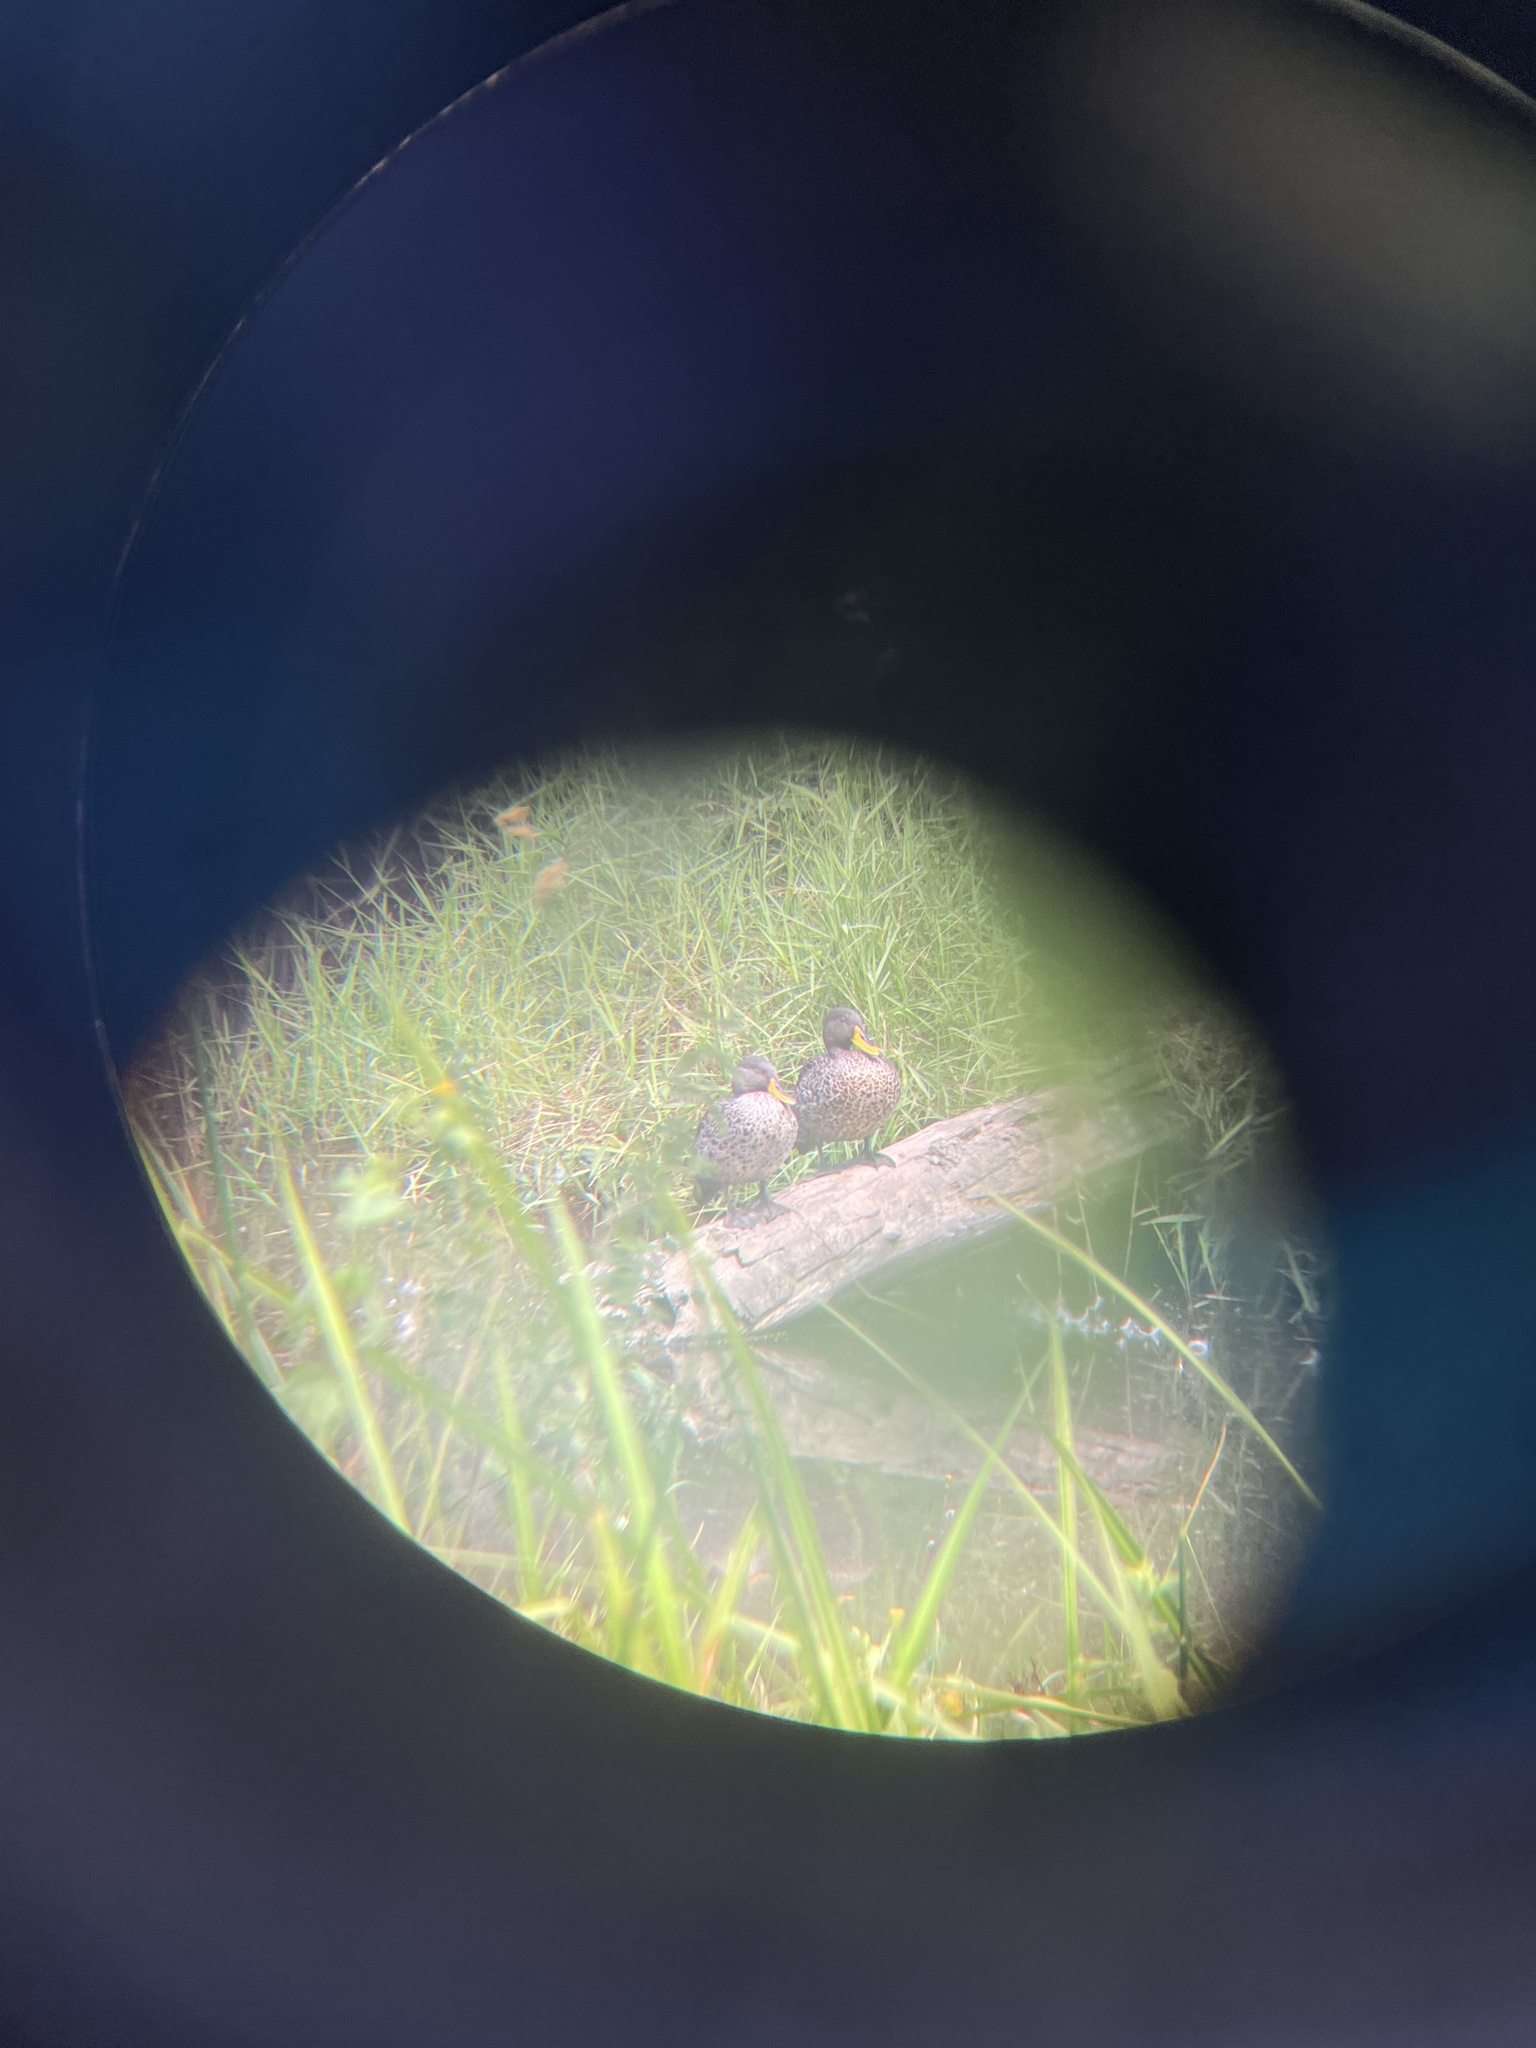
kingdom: Animalia
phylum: Chordata
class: Aves
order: Anseriformes
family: Anatidae
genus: Anas
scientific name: Anas undulata
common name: Yellow-billed duck
